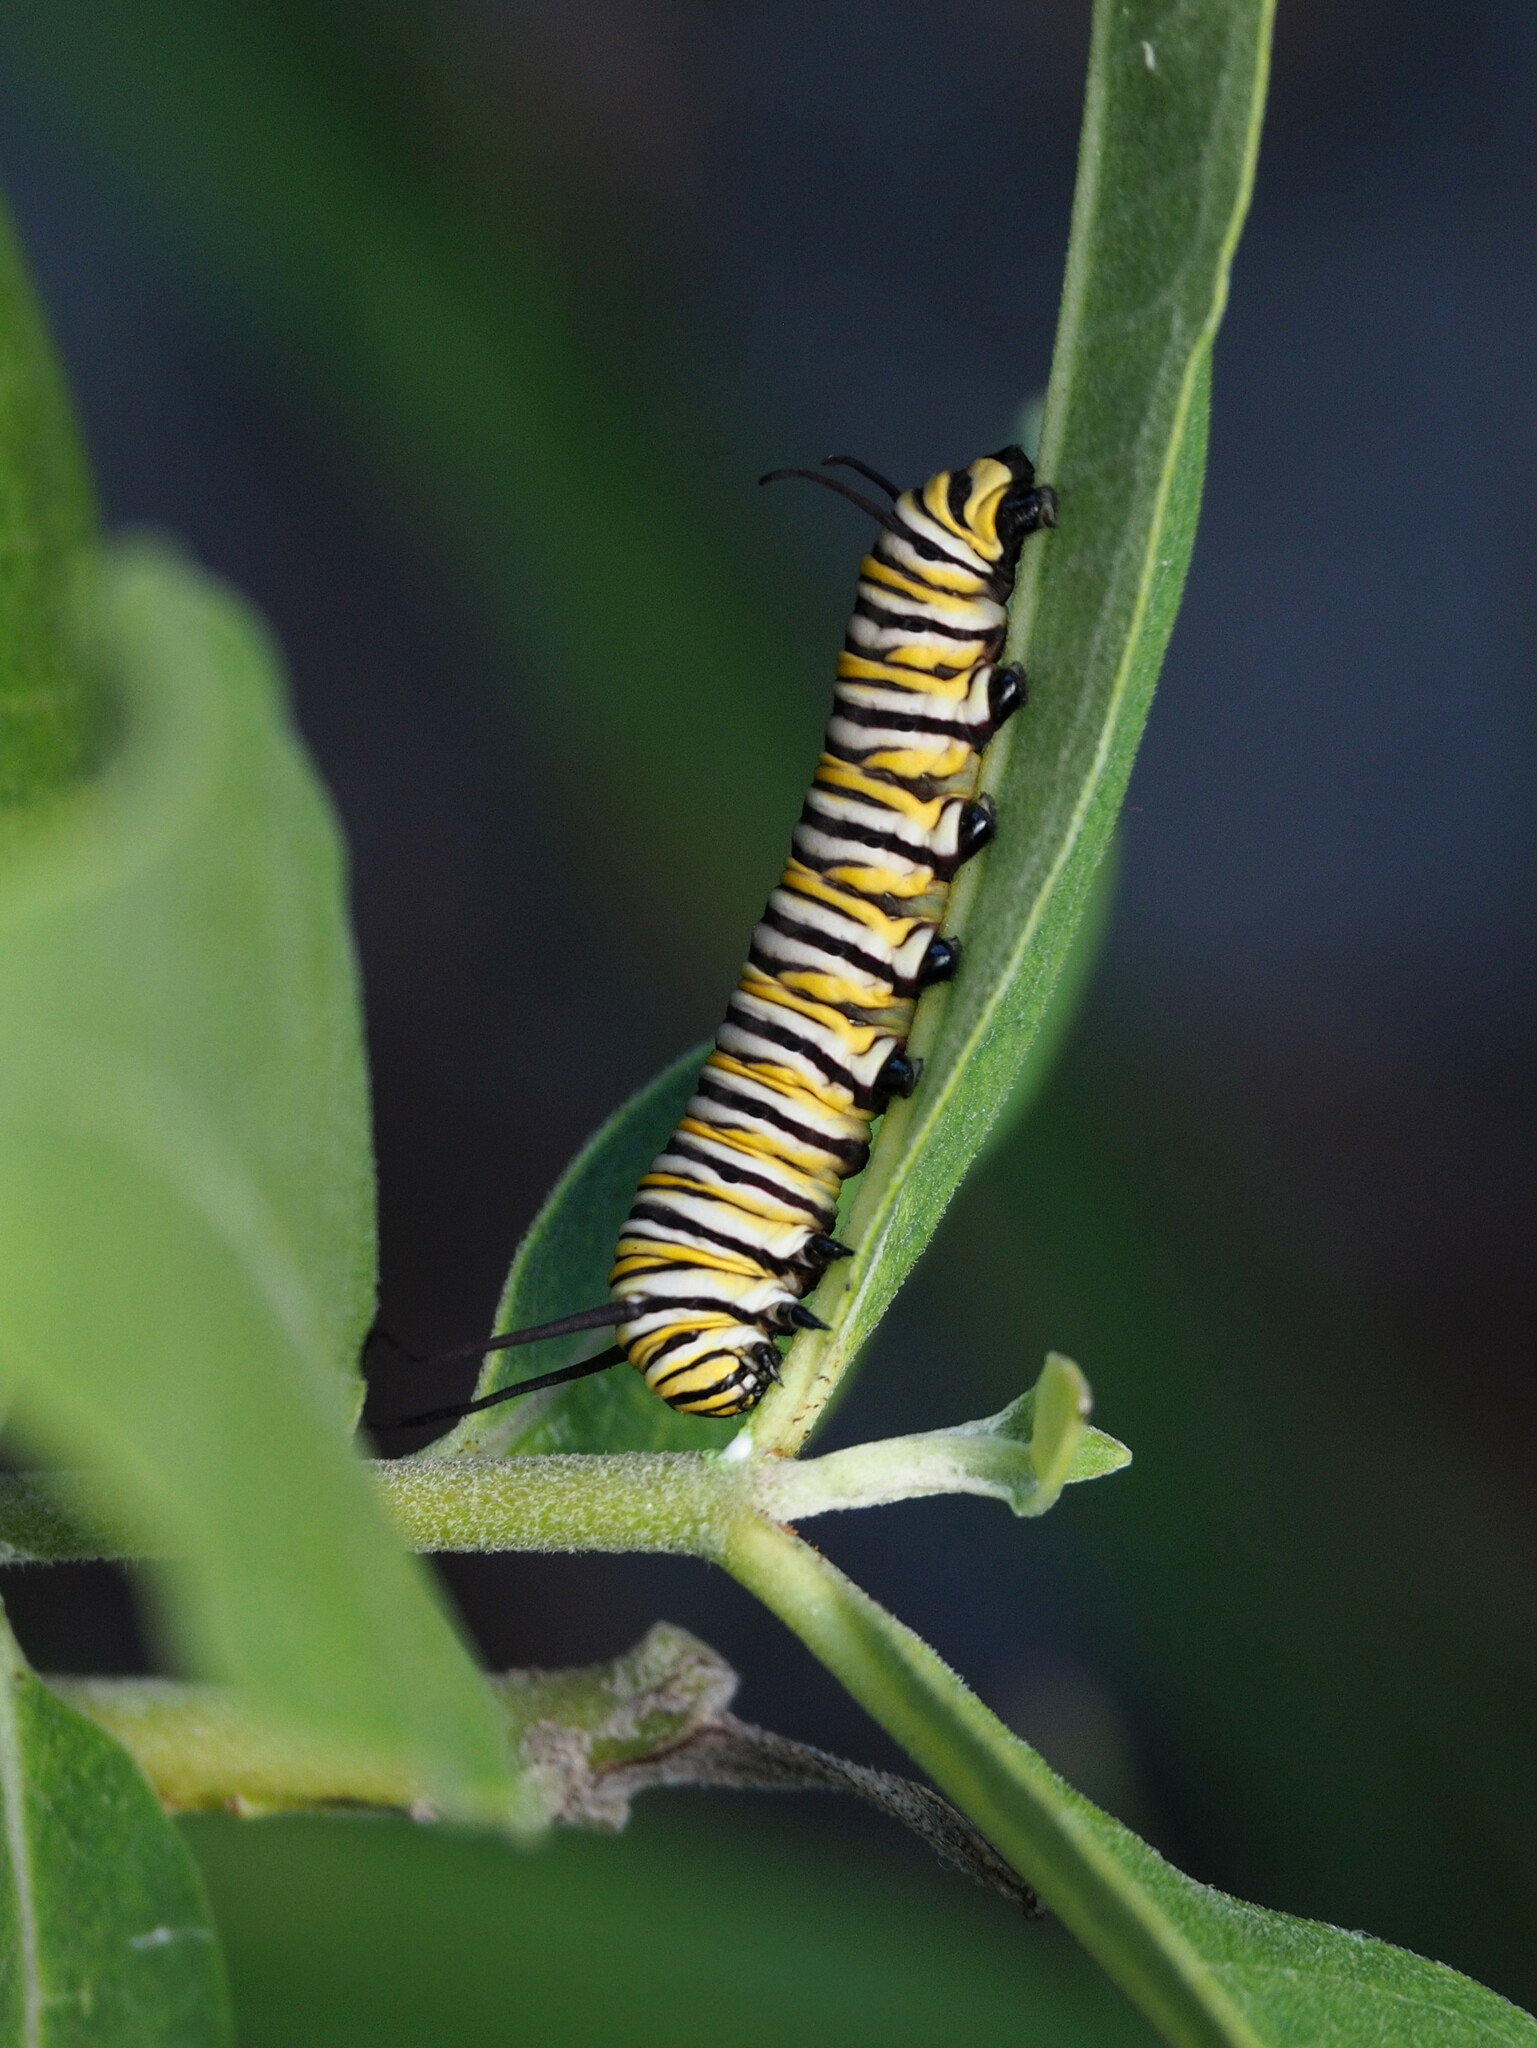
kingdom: Animalia
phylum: Arthropoda
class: Insecta
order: Lepidoptera
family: Nymphalidae
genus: Danaus
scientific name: Danaus plexippus
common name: Monarch
